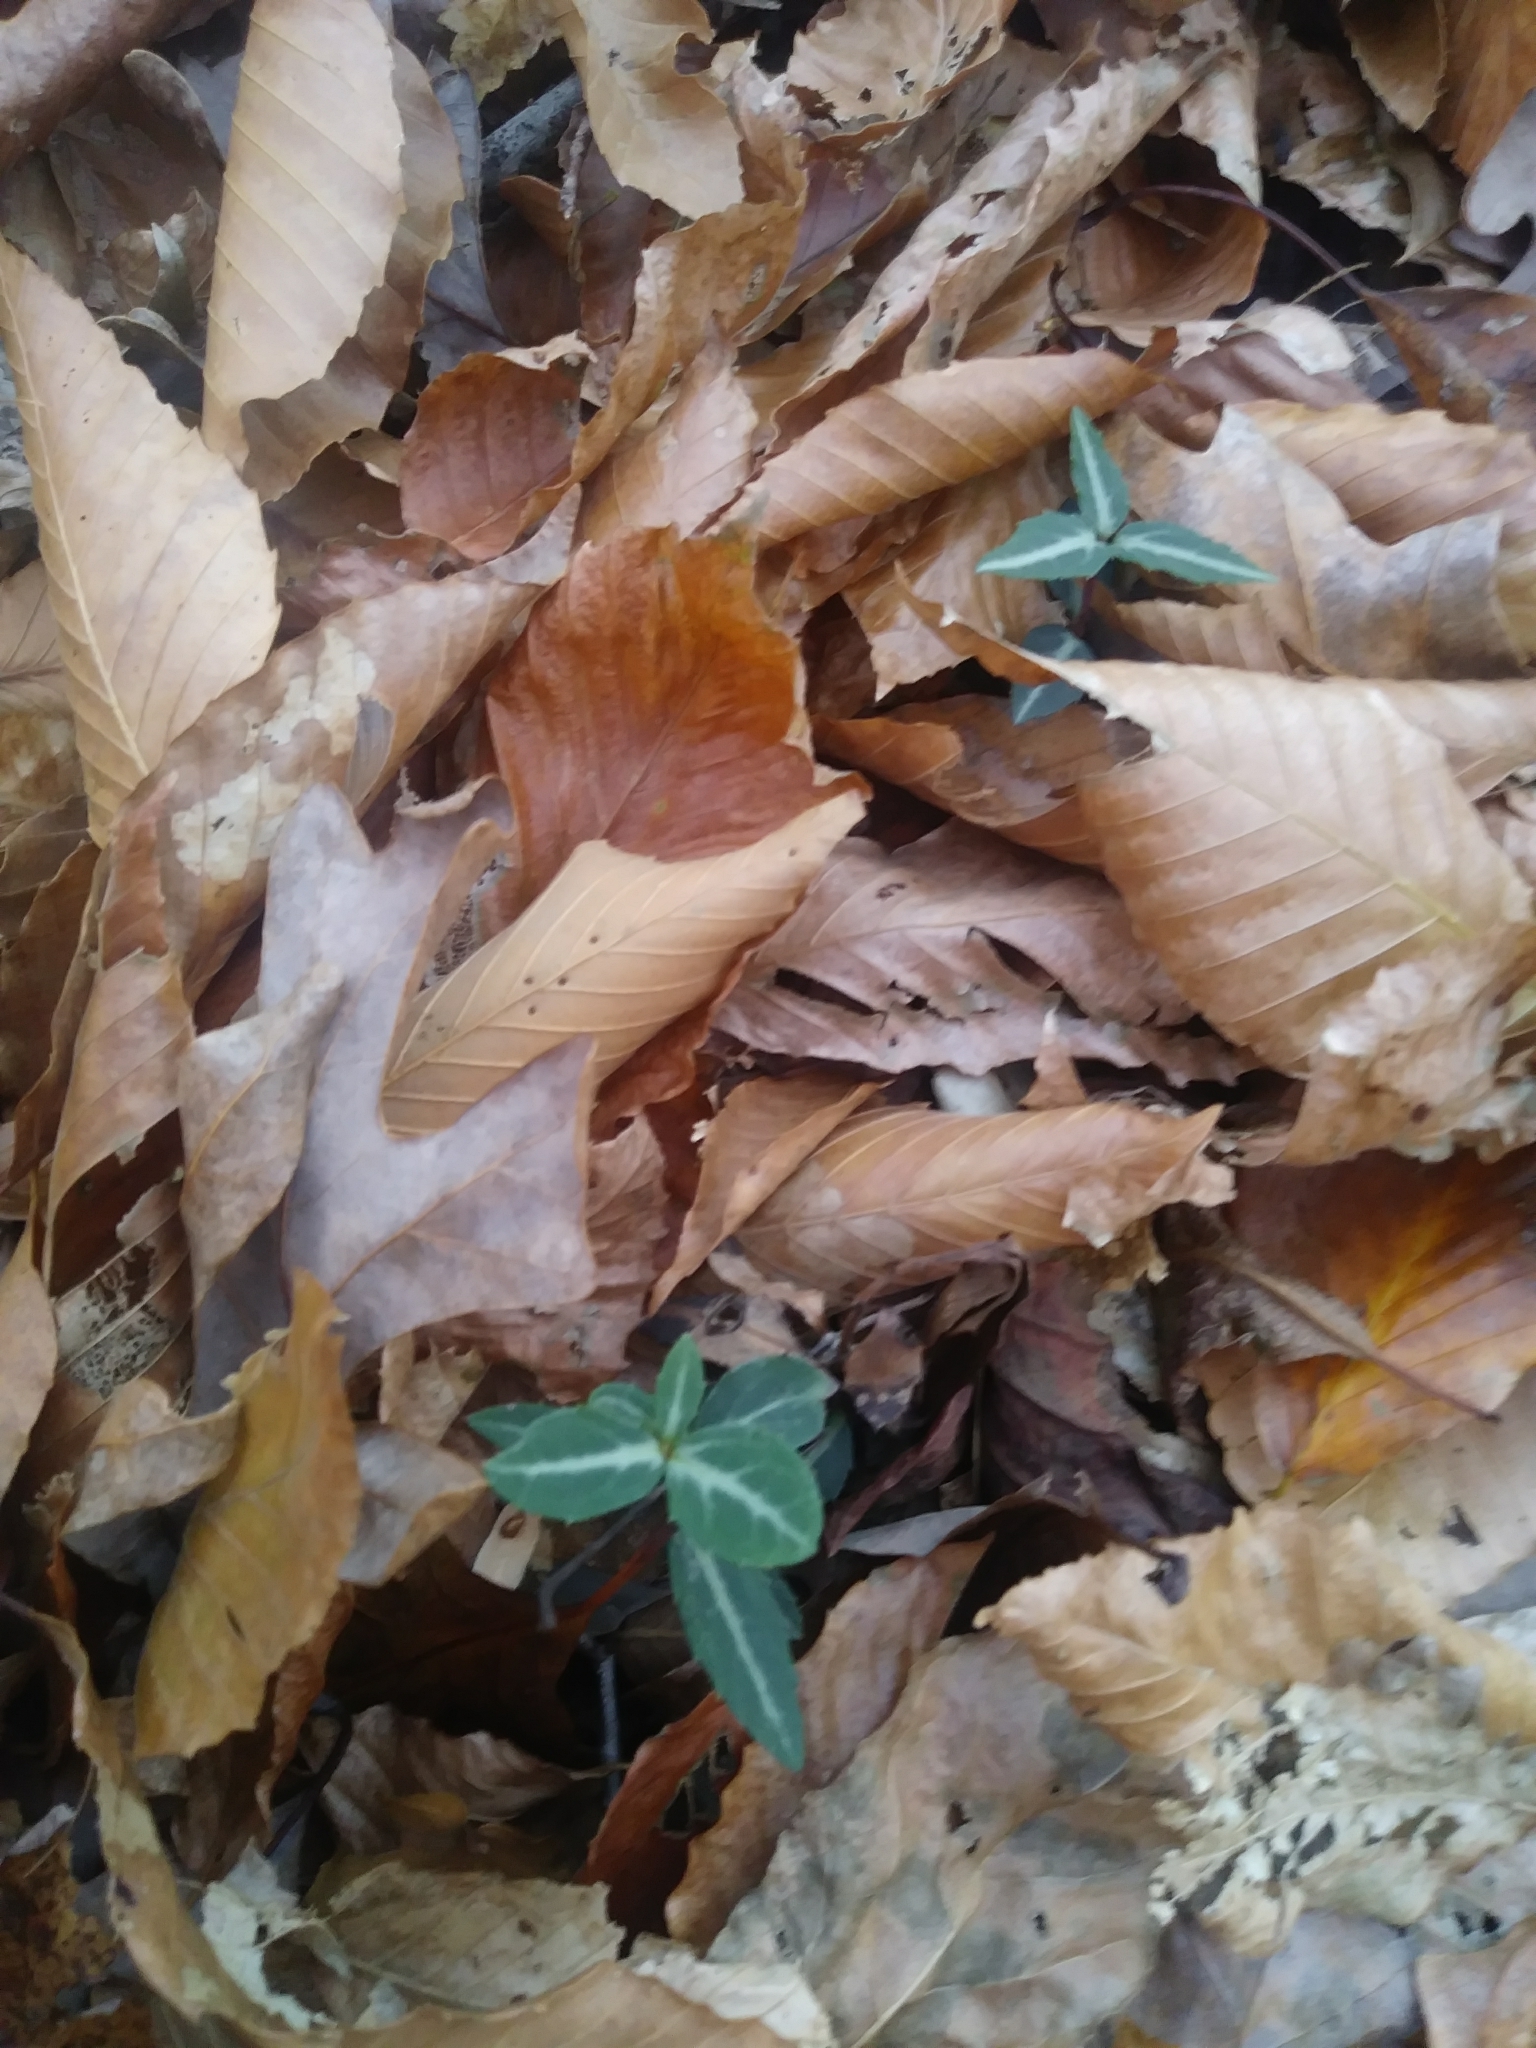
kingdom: Plantae
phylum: Tracheophyta
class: Magnoliopsida
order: Ericales
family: Ericaceae
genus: Chimaphila
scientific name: Chimaphila maculata
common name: Spotted pipsissewa
